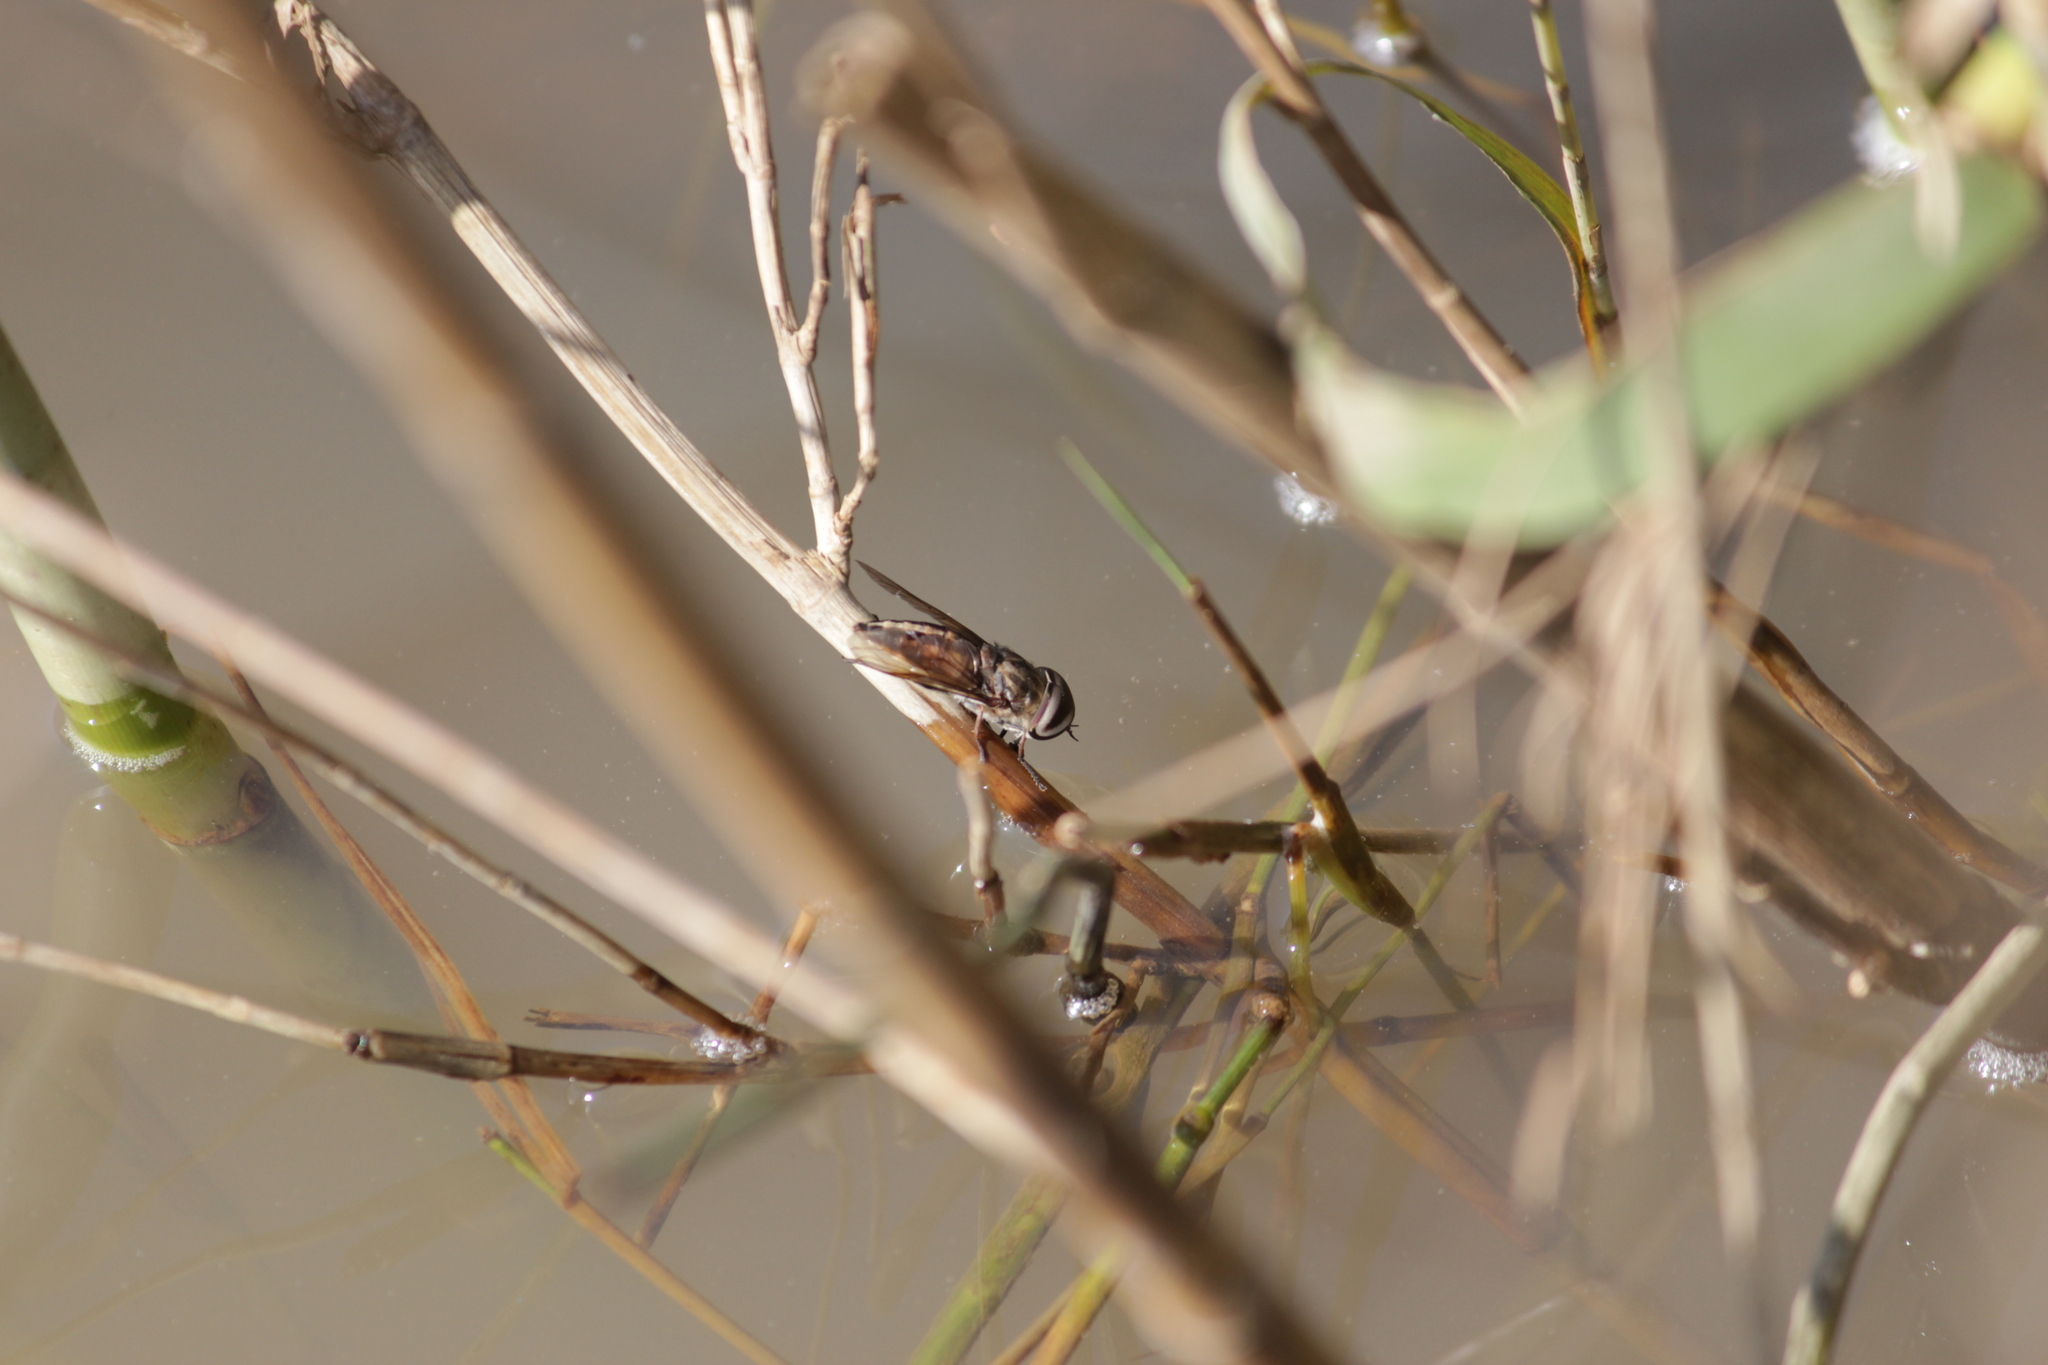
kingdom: Animalia
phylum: Arthropoda
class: Insecta
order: Diptera
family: Tabanidae
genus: Tabanus
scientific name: Tabanus taeniola
